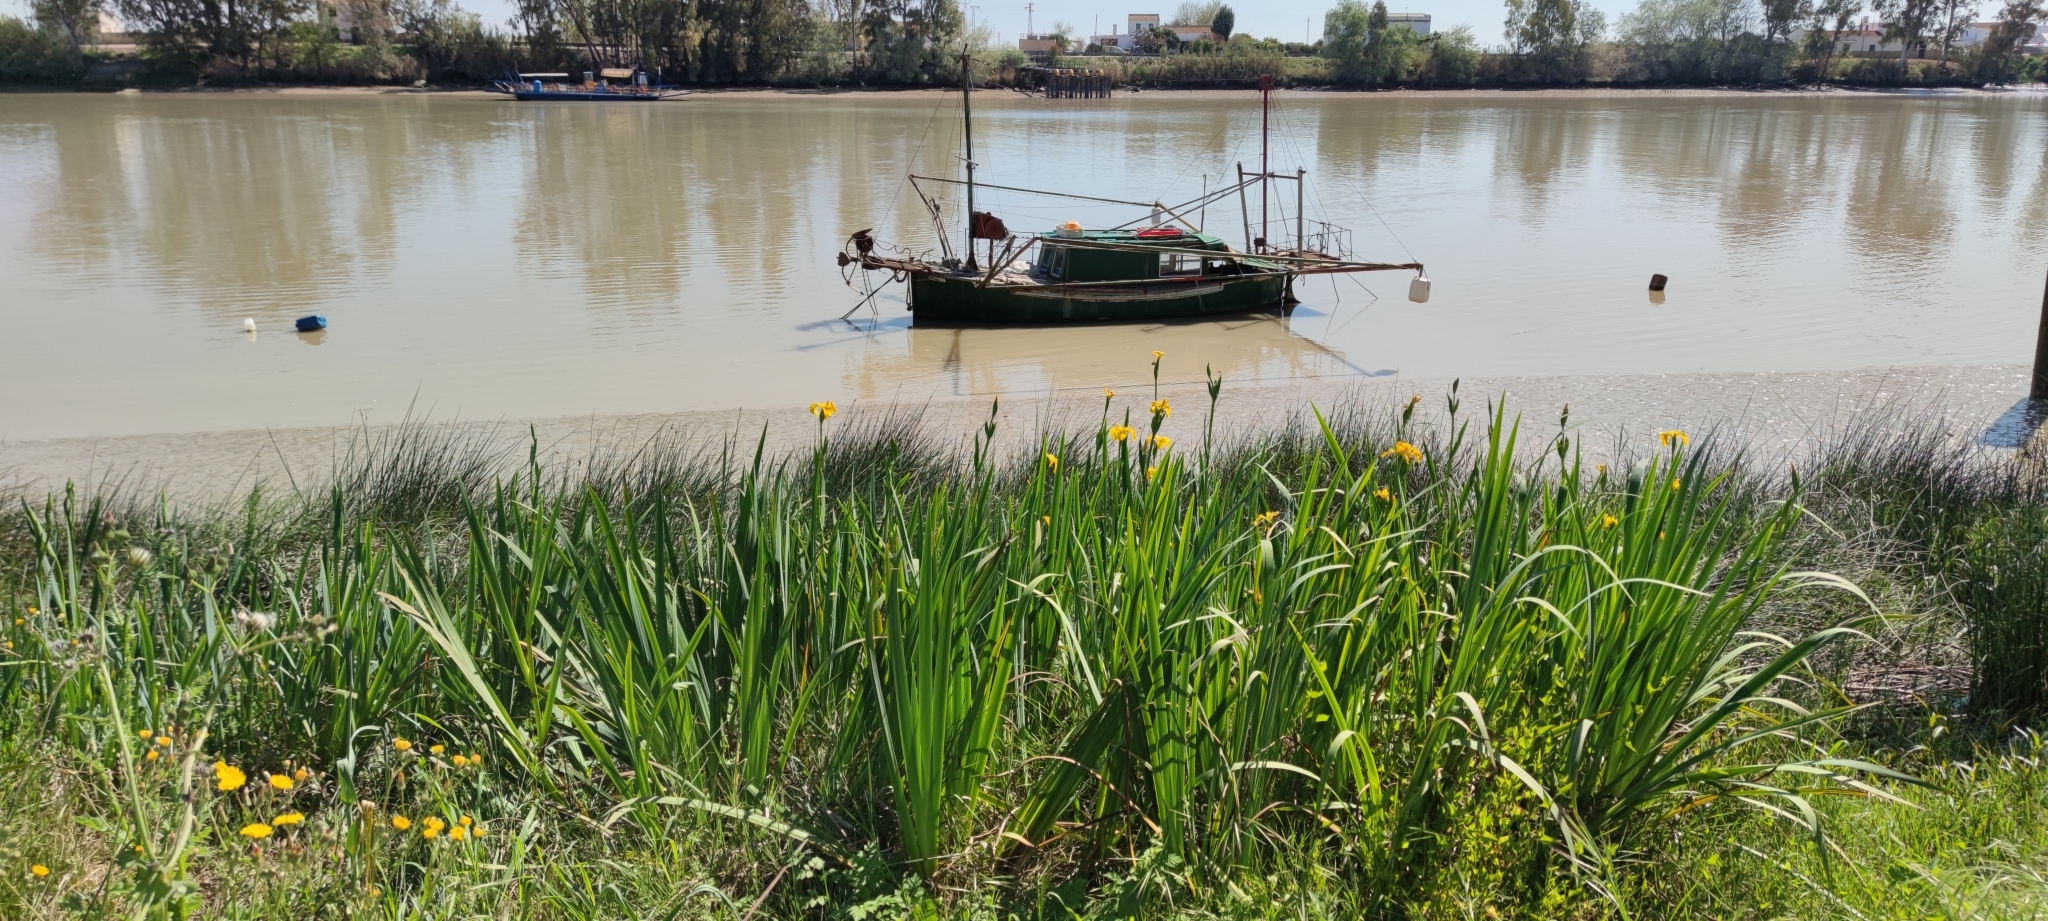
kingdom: Plantae
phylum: Tracheophyta
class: Liliopsida
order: Asparagales
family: Iridaceae
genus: Iris
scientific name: Iris pseudacorus
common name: Yellow flag
